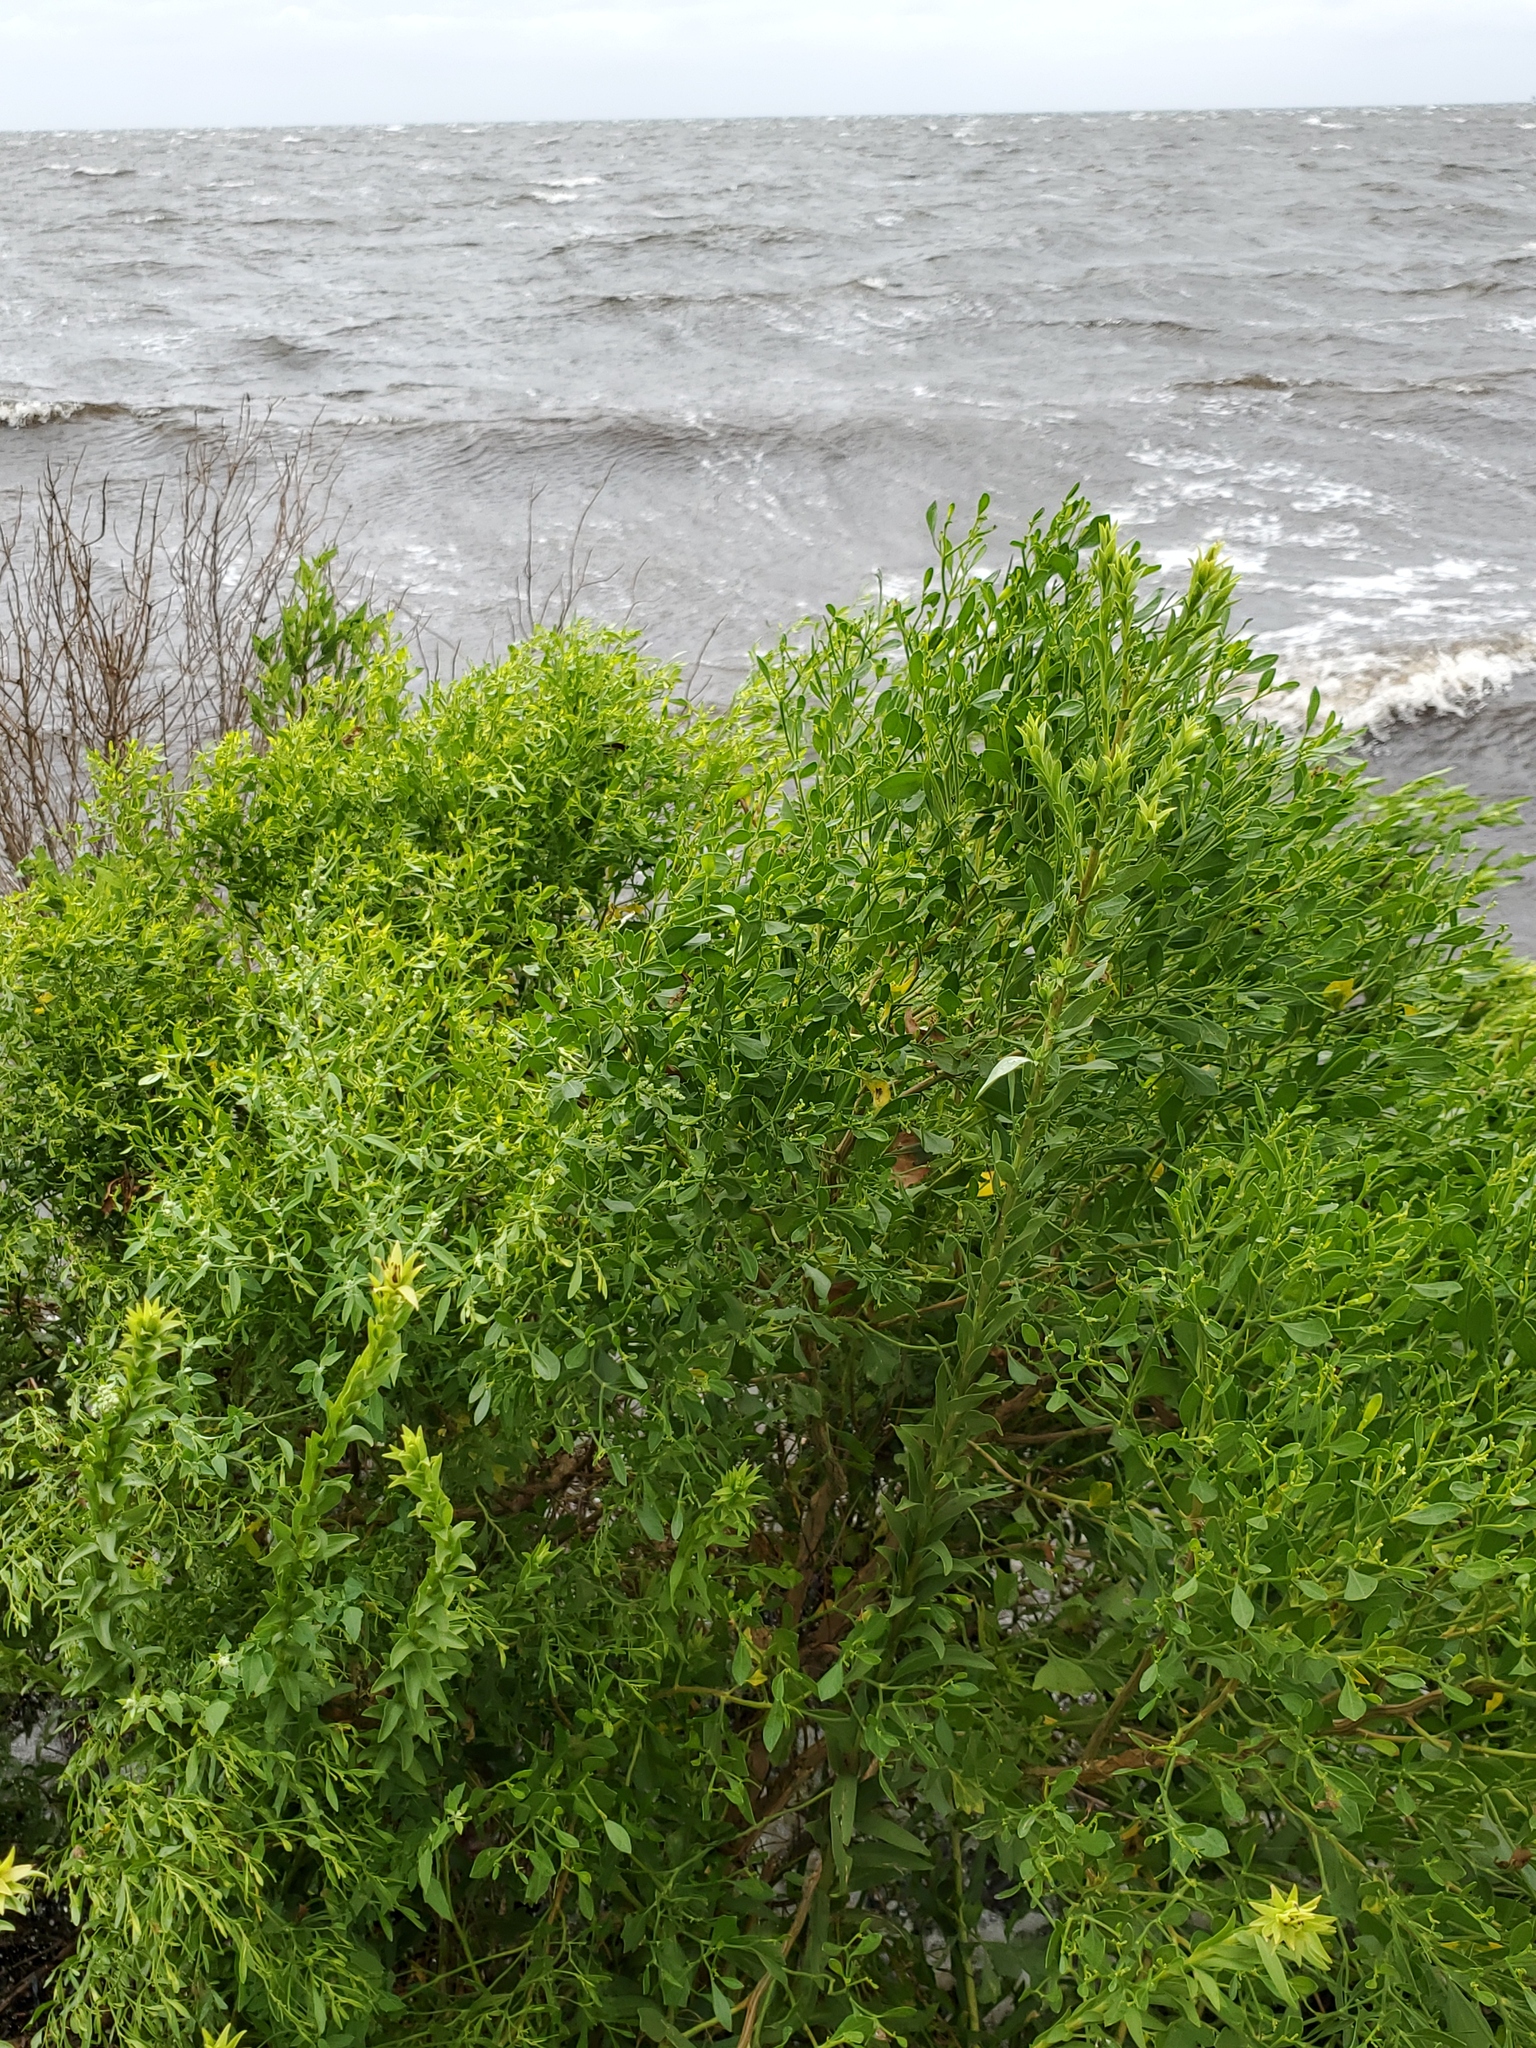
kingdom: Plantae
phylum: Tracheophyta
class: Magnoliopsida
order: Asterales
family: Asteraceae
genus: Baccharis
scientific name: Baccharis halimifolia
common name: Eastern baccharis
